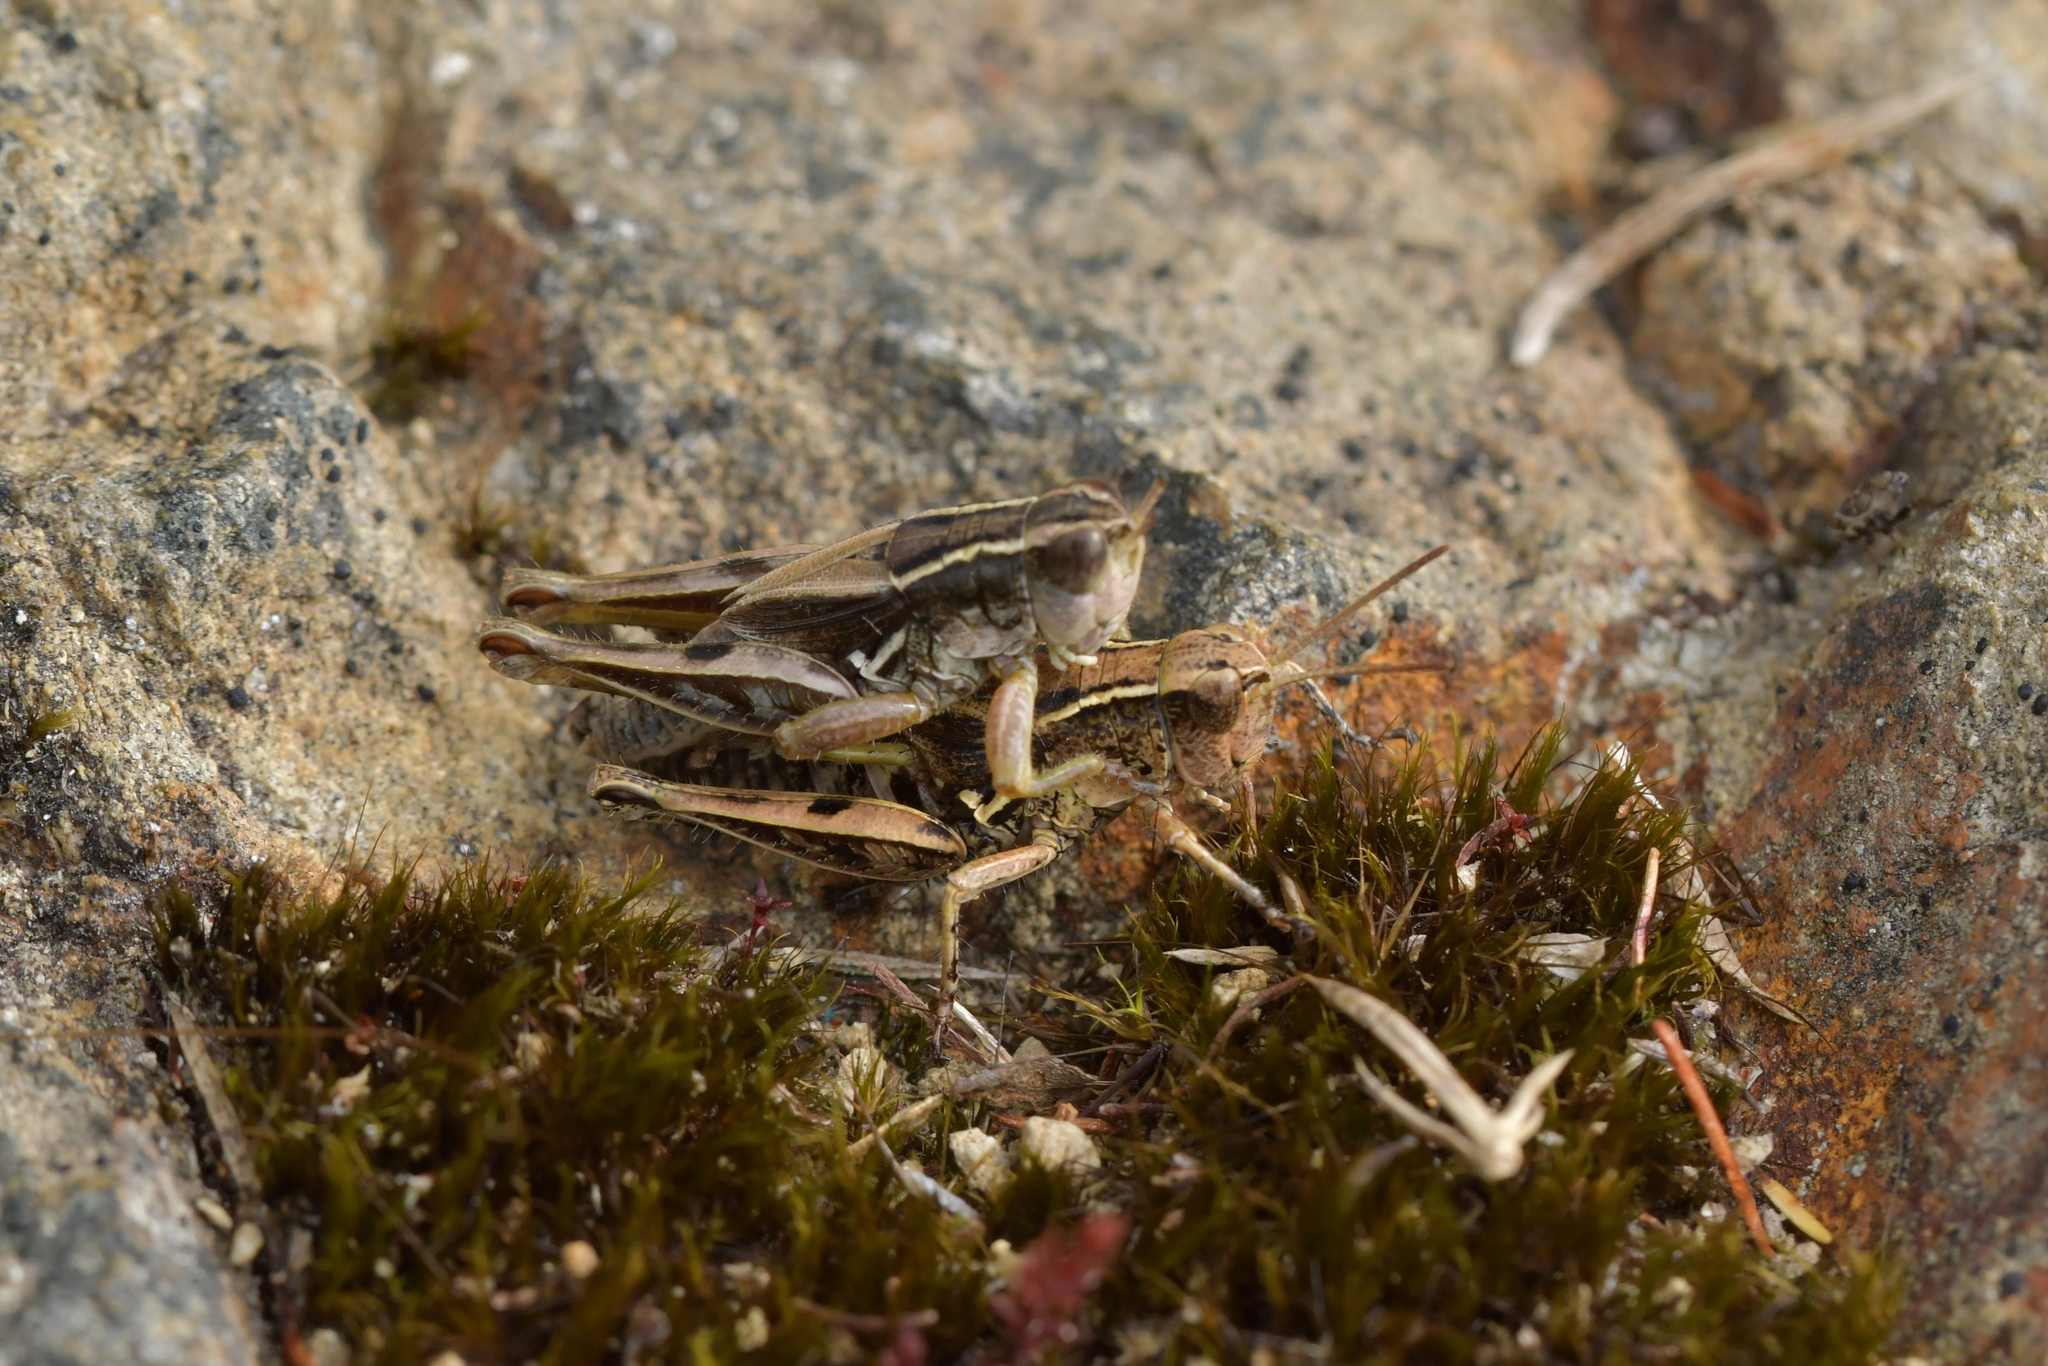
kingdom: Animalia
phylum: Arthropoda
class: Insecta
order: Orthoptera
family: Acrididae
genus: Phaulacridium
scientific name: Phaulacridium marginale
